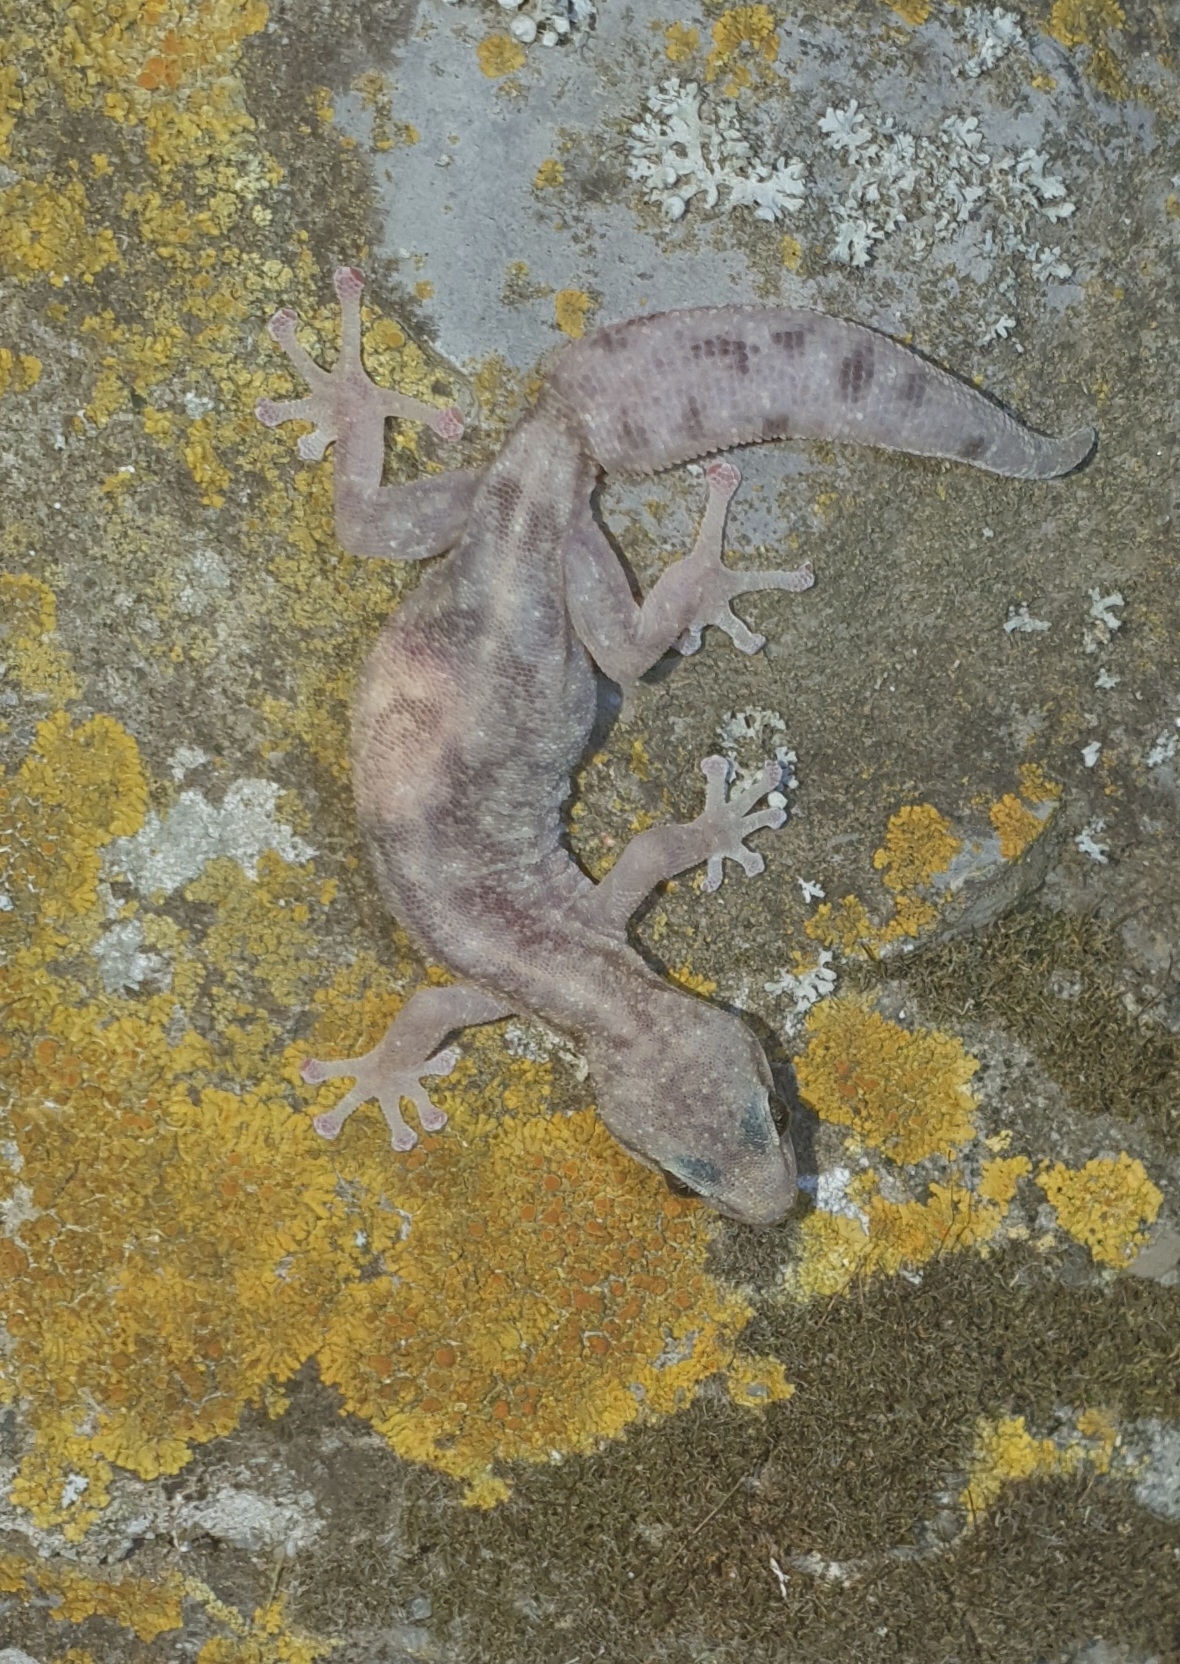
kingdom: Animalia
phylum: Chordata
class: Squamata
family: Sphaerodactylidae
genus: Euleptes
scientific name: Euleptes europaea
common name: English common name not available
